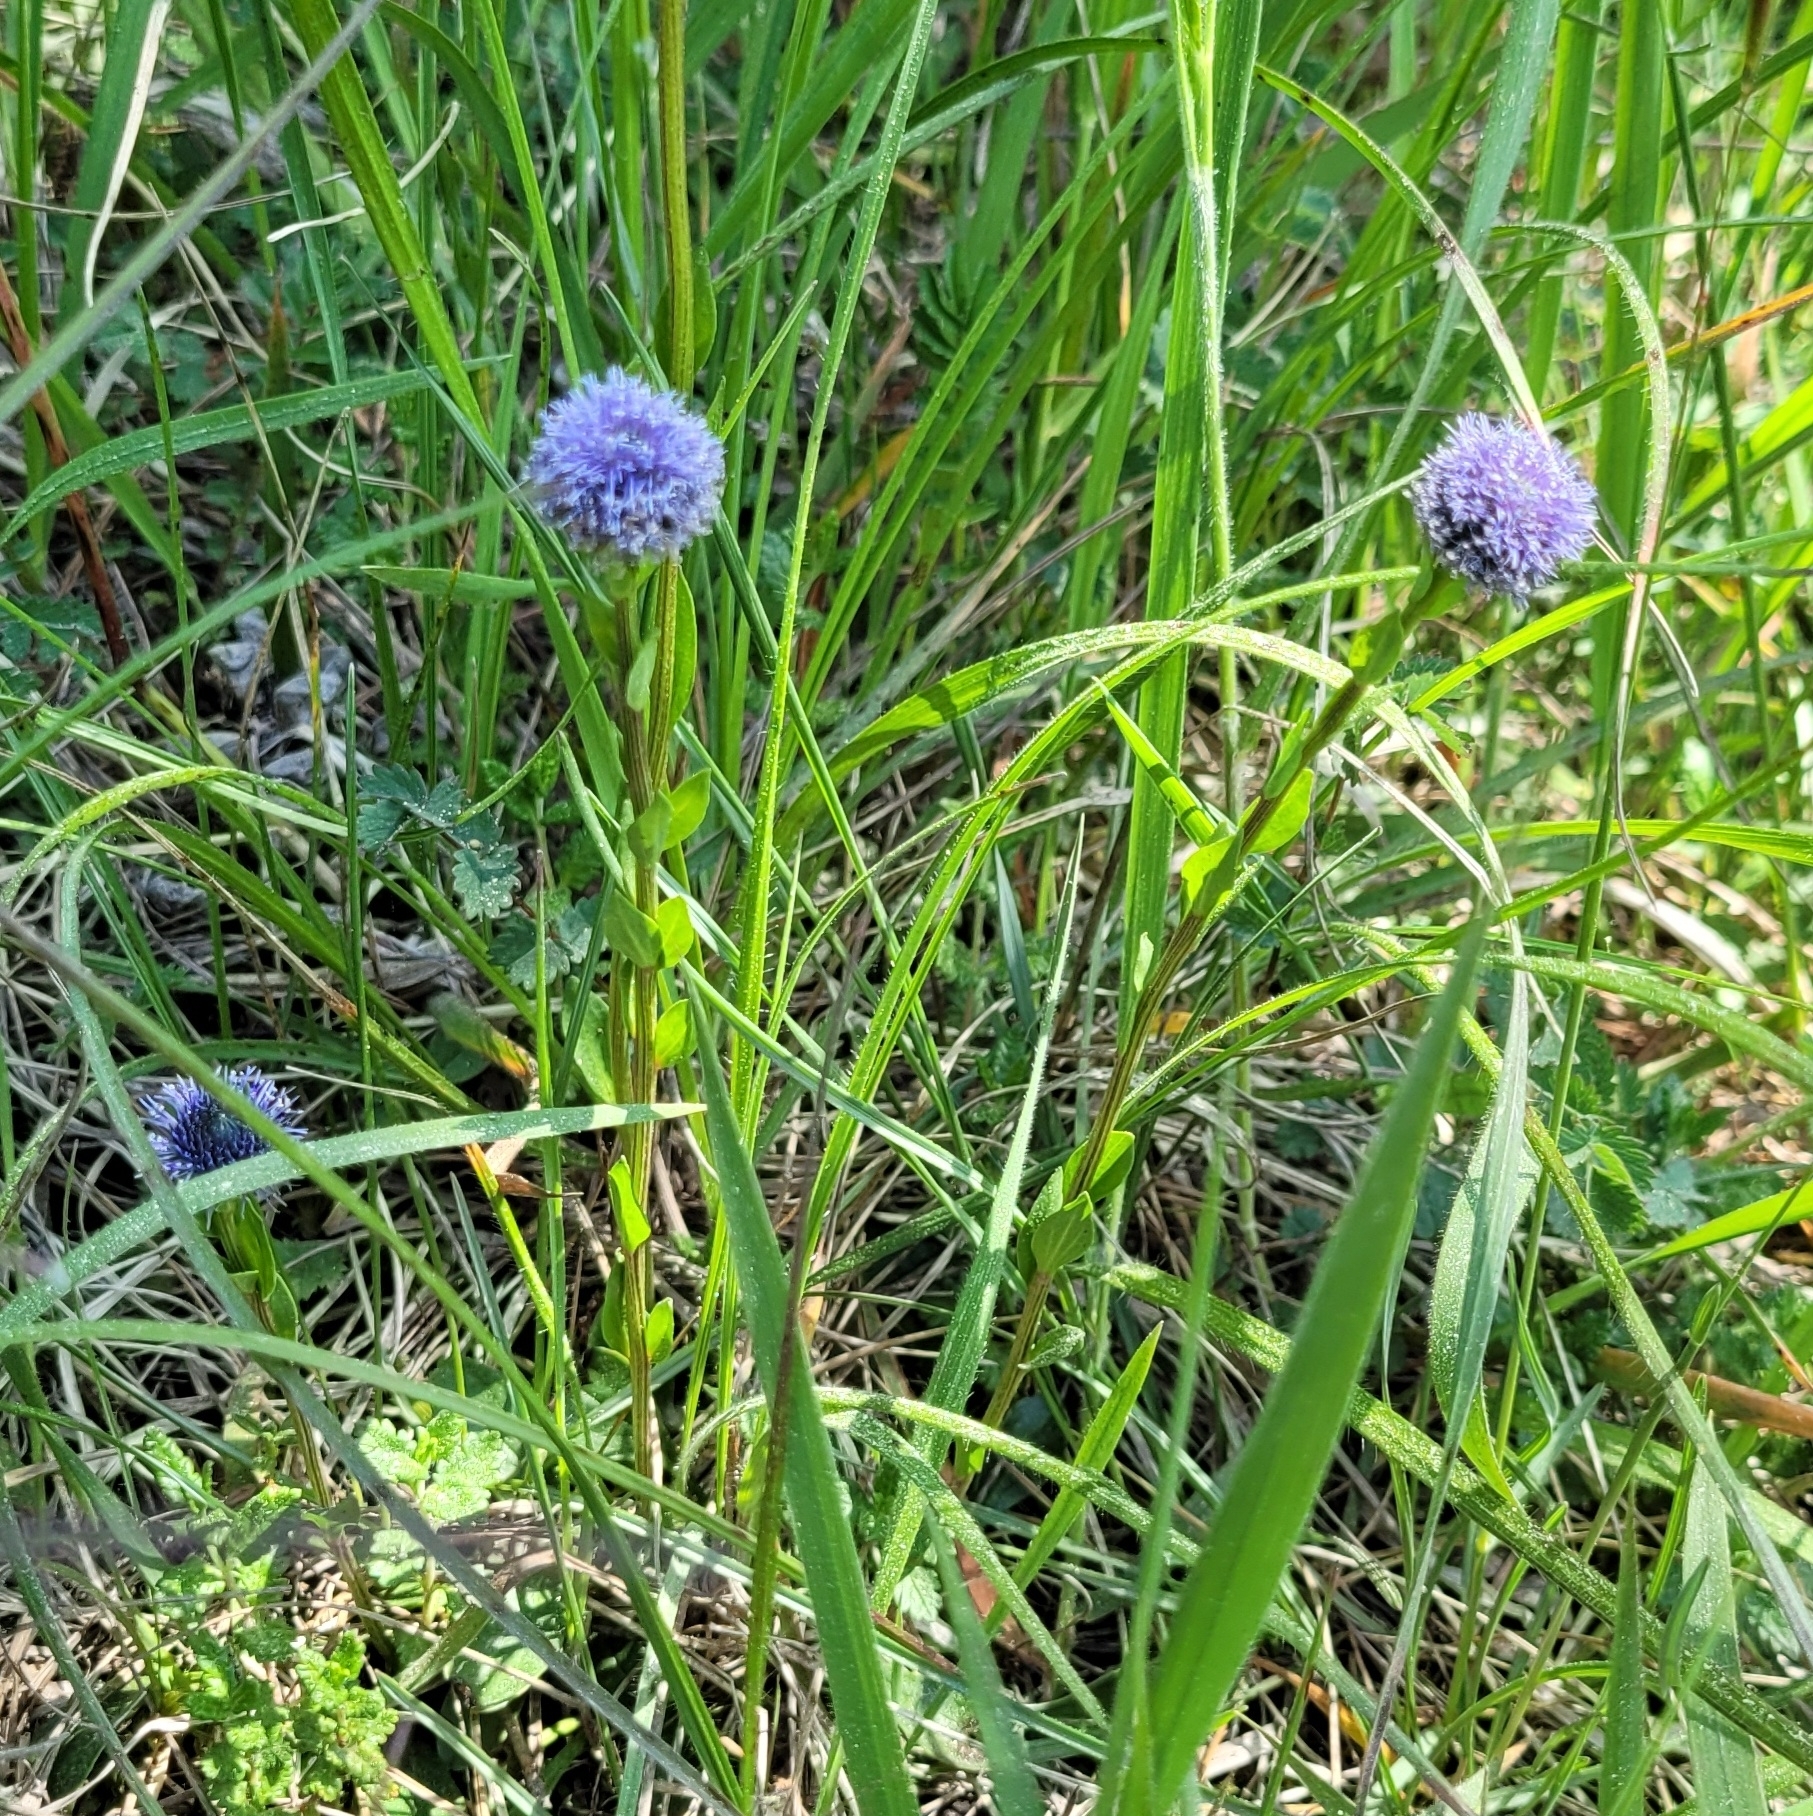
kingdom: Plantae
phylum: Tracheophyta
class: Magnoliopsida
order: Lamiales
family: Plantaginaceae
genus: Globularia
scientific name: Globularia bisnagarica
